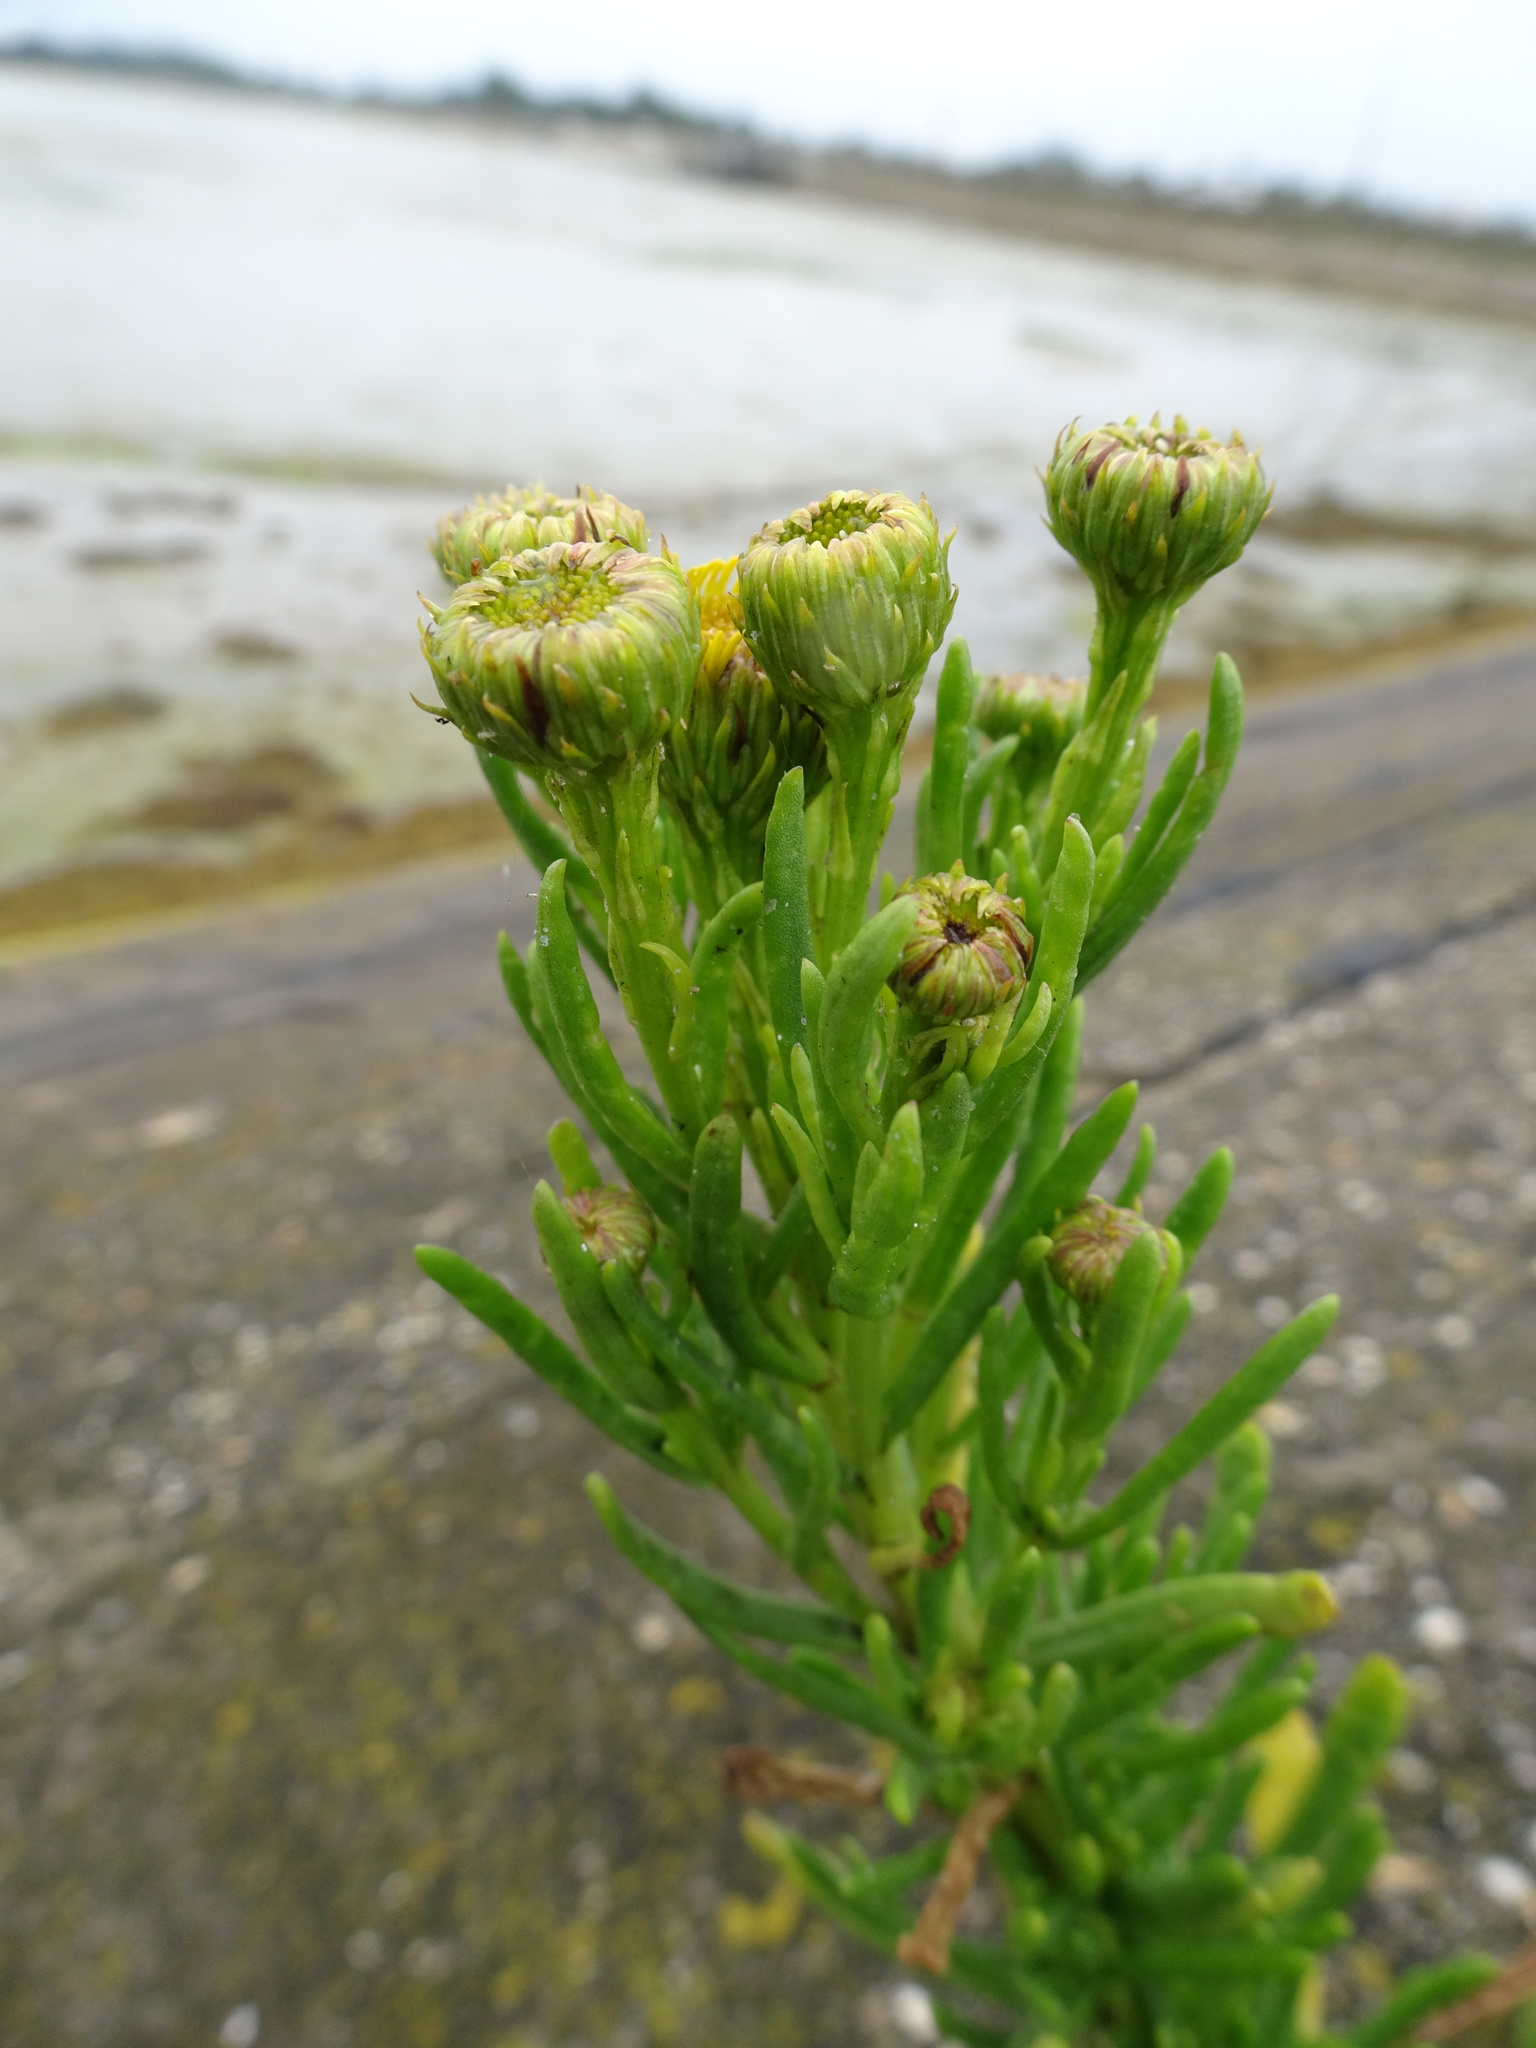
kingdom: Plantae
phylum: Tracheophyta
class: Magnoliopsida
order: Asterales
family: Asteraceae
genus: Limbarda
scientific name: Limbarda crithmoides
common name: Golden samphire
